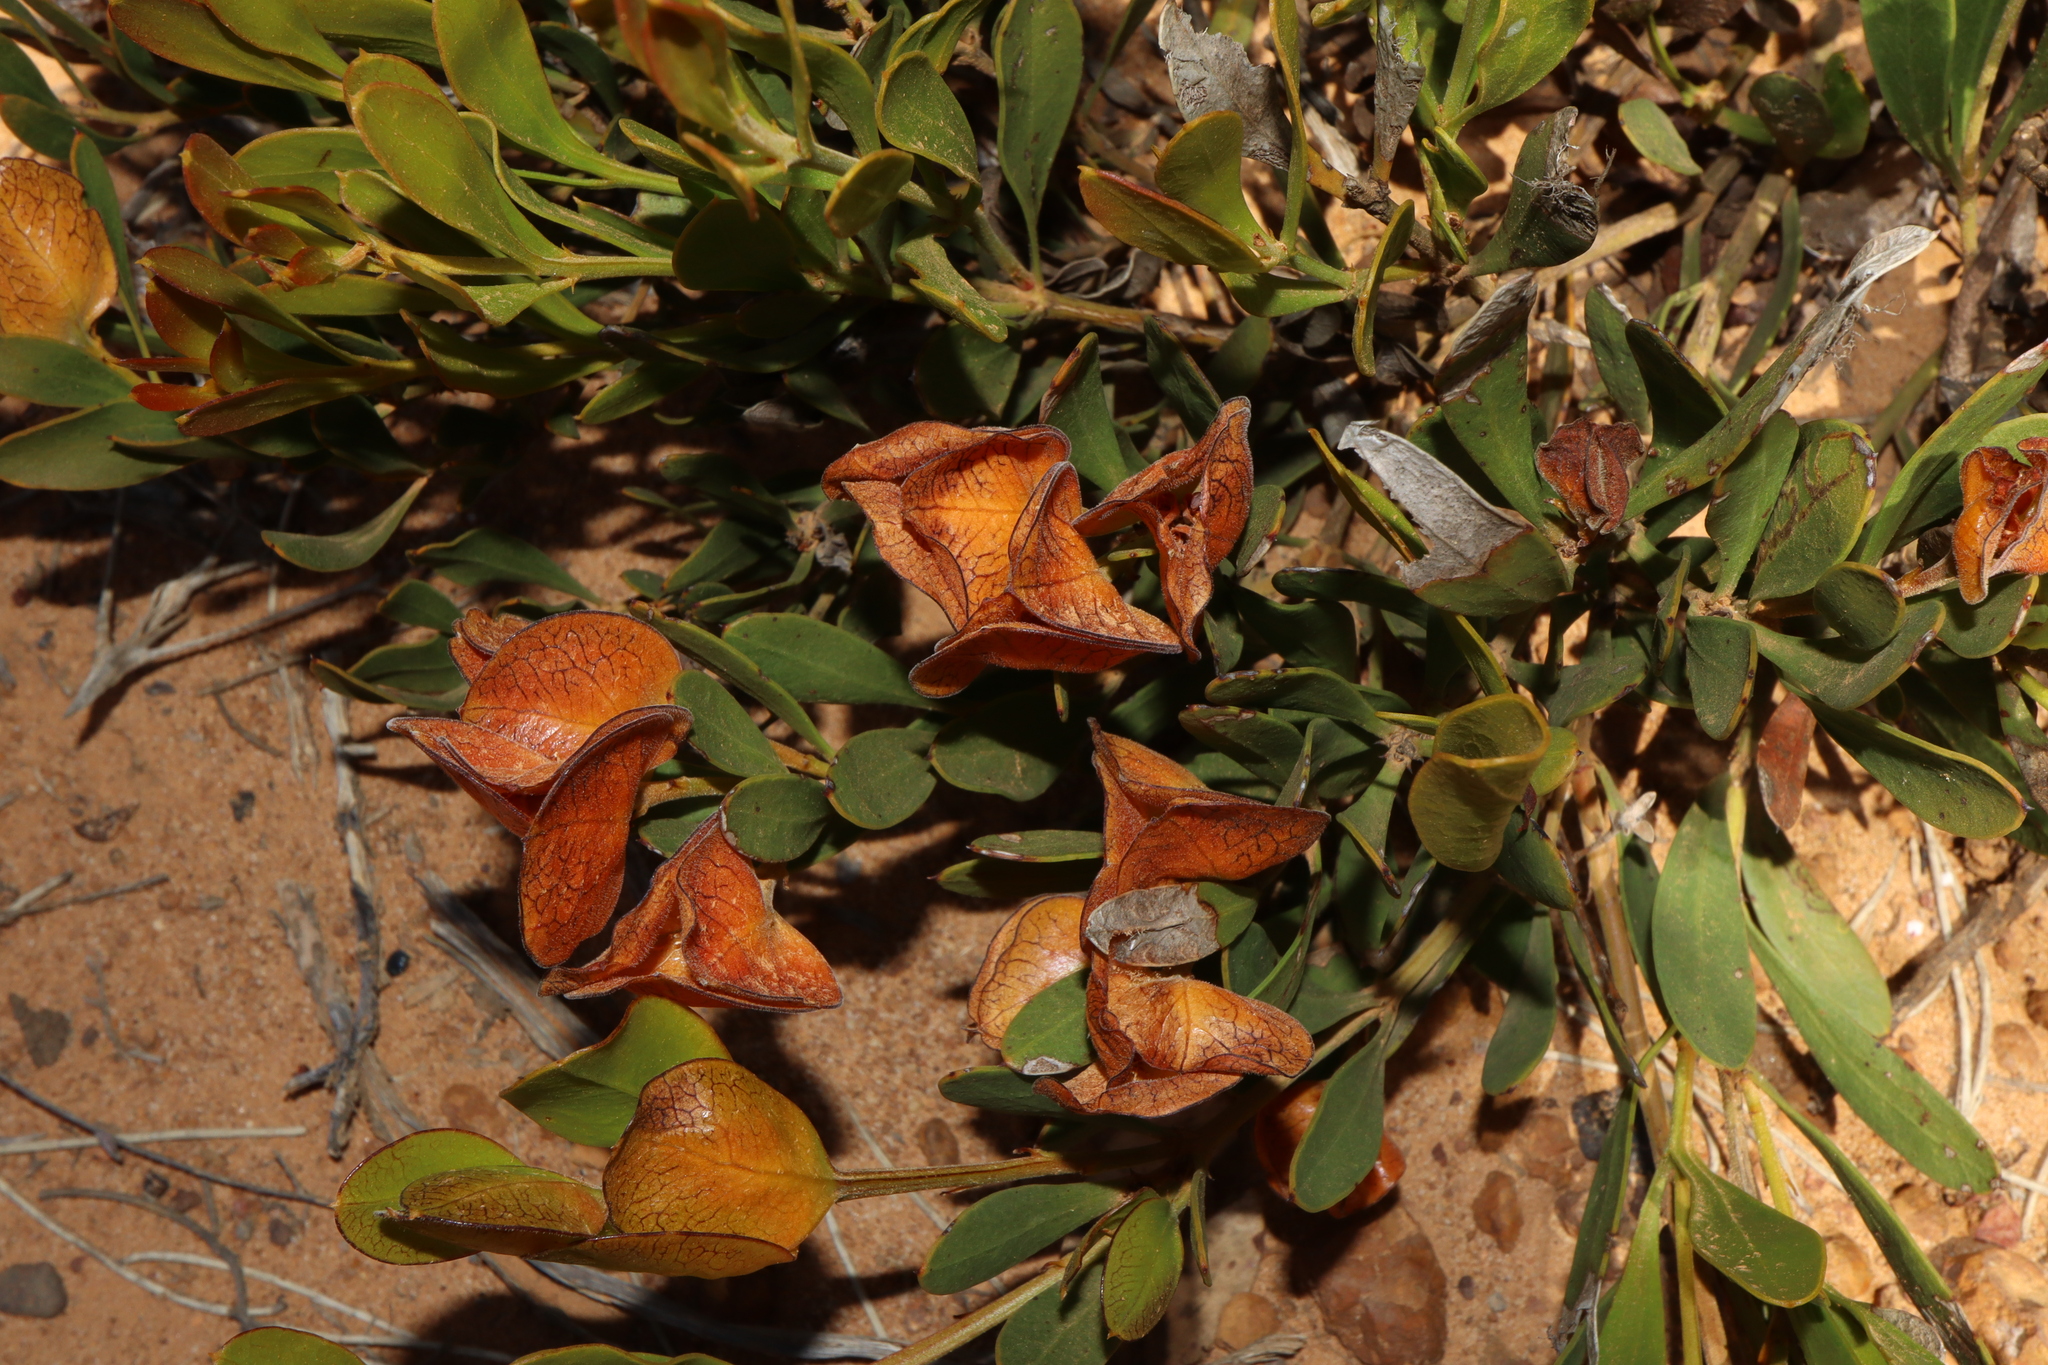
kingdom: Plantae
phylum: Tracheophyta
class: Magnoliopsida
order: Fabales
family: Fabaceae
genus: Daviesia
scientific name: Daviesia alternifolia
